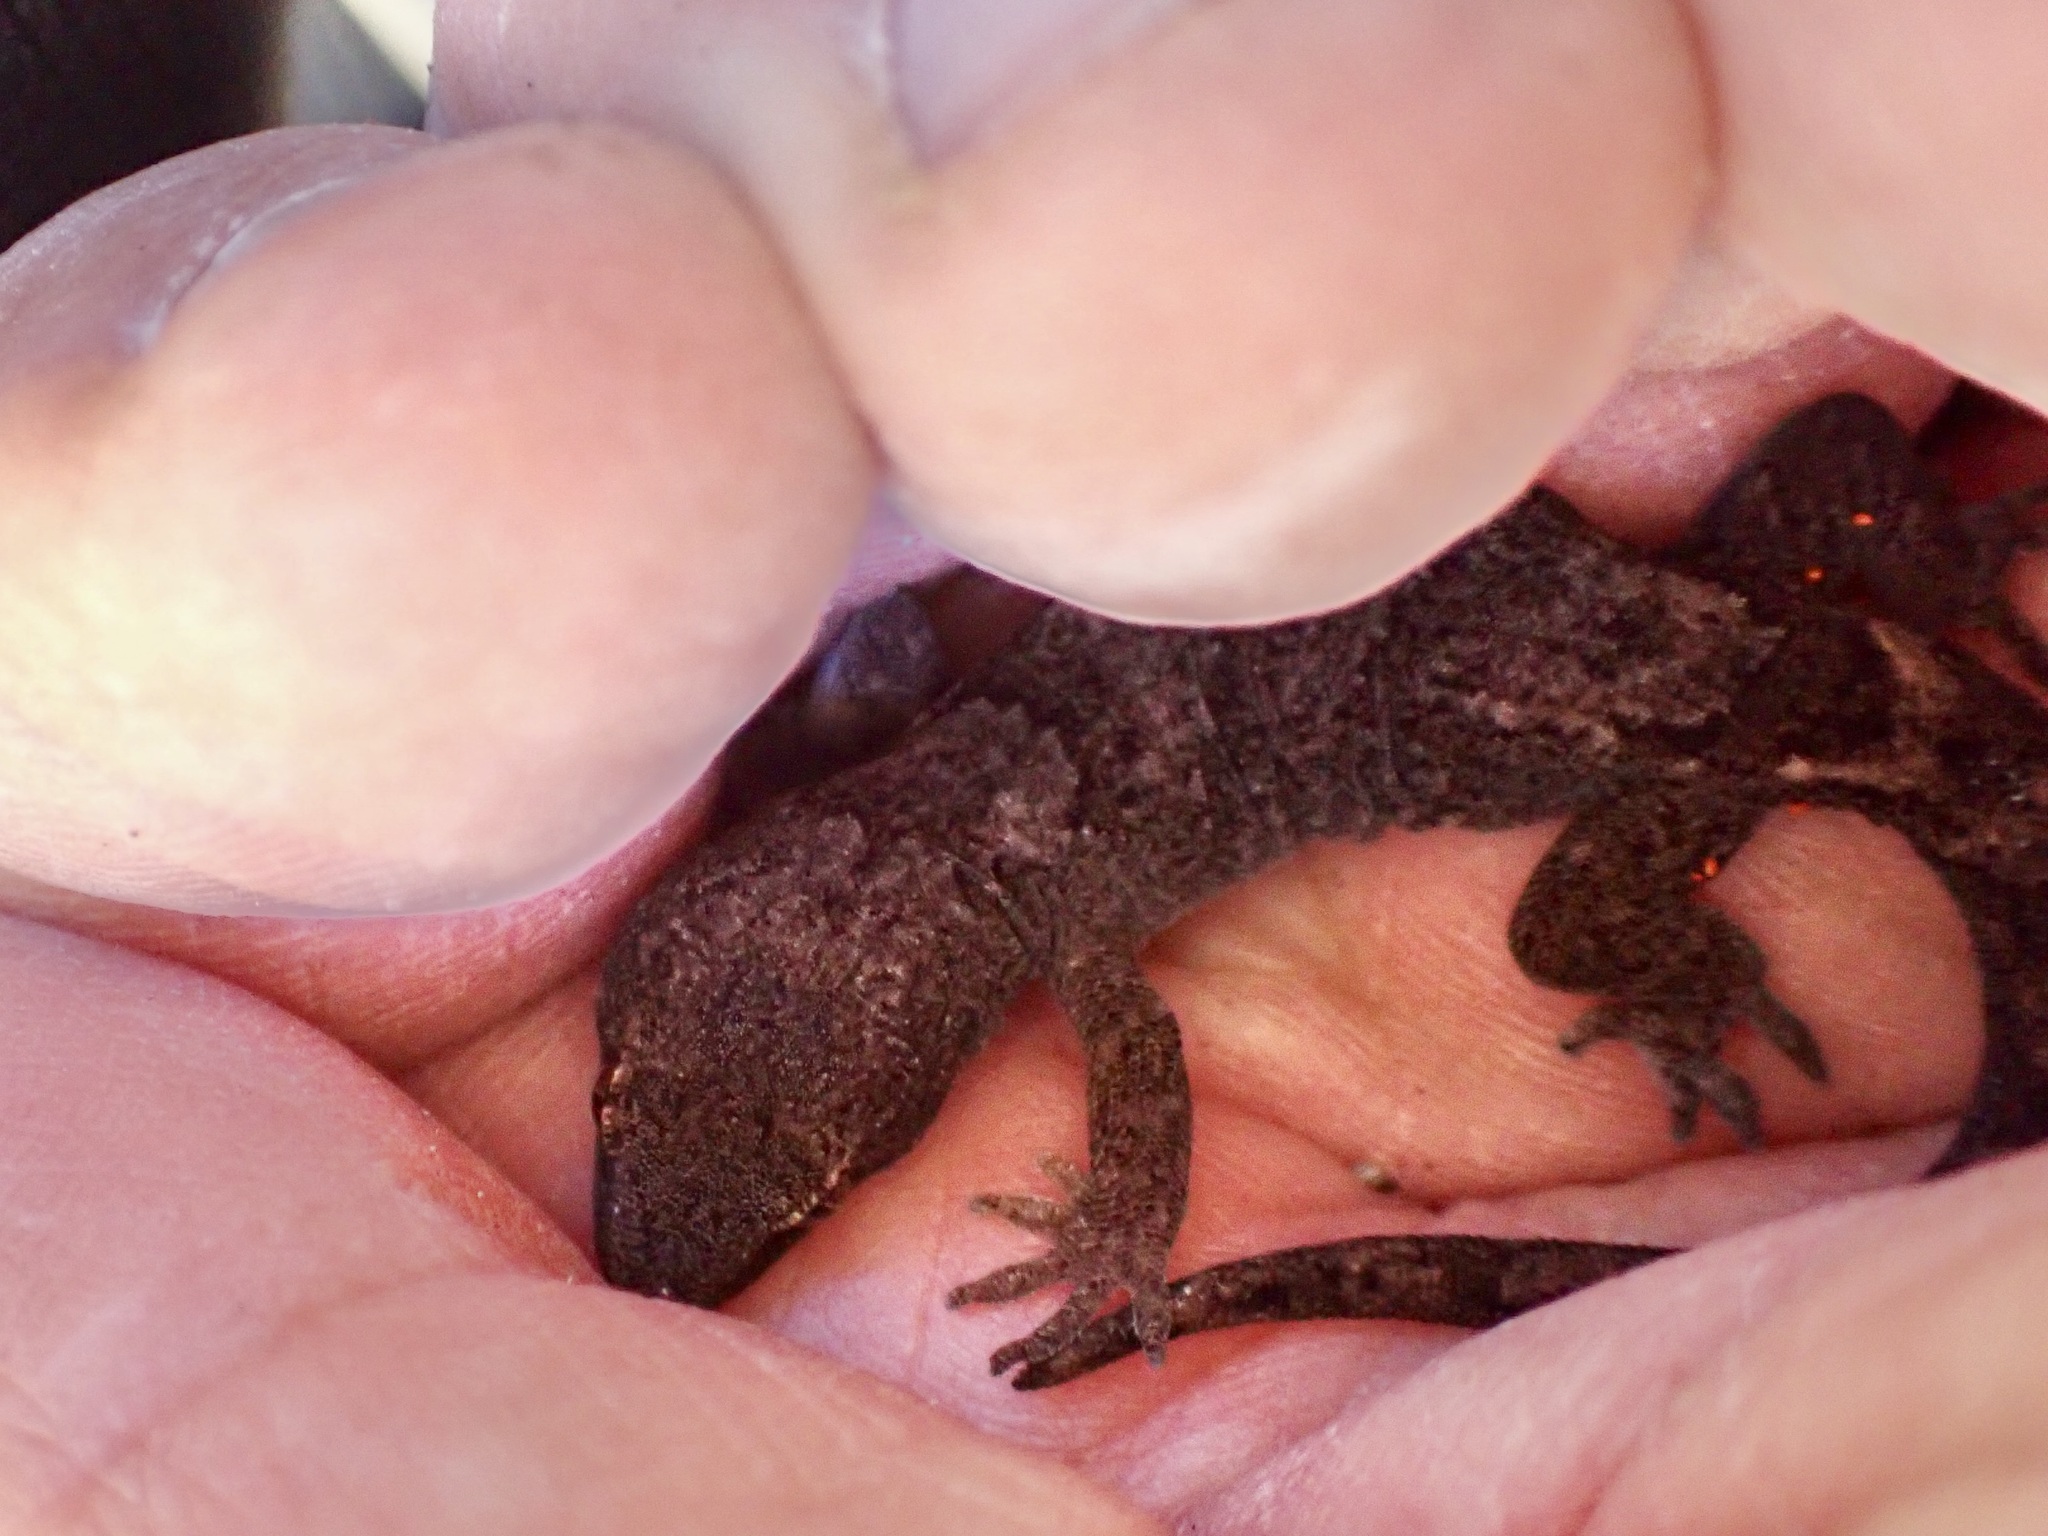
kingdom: Animalia
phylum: Chordata
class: Squamata
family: Diplodactylidae
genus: Woodworthia
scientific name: Woodworthia
